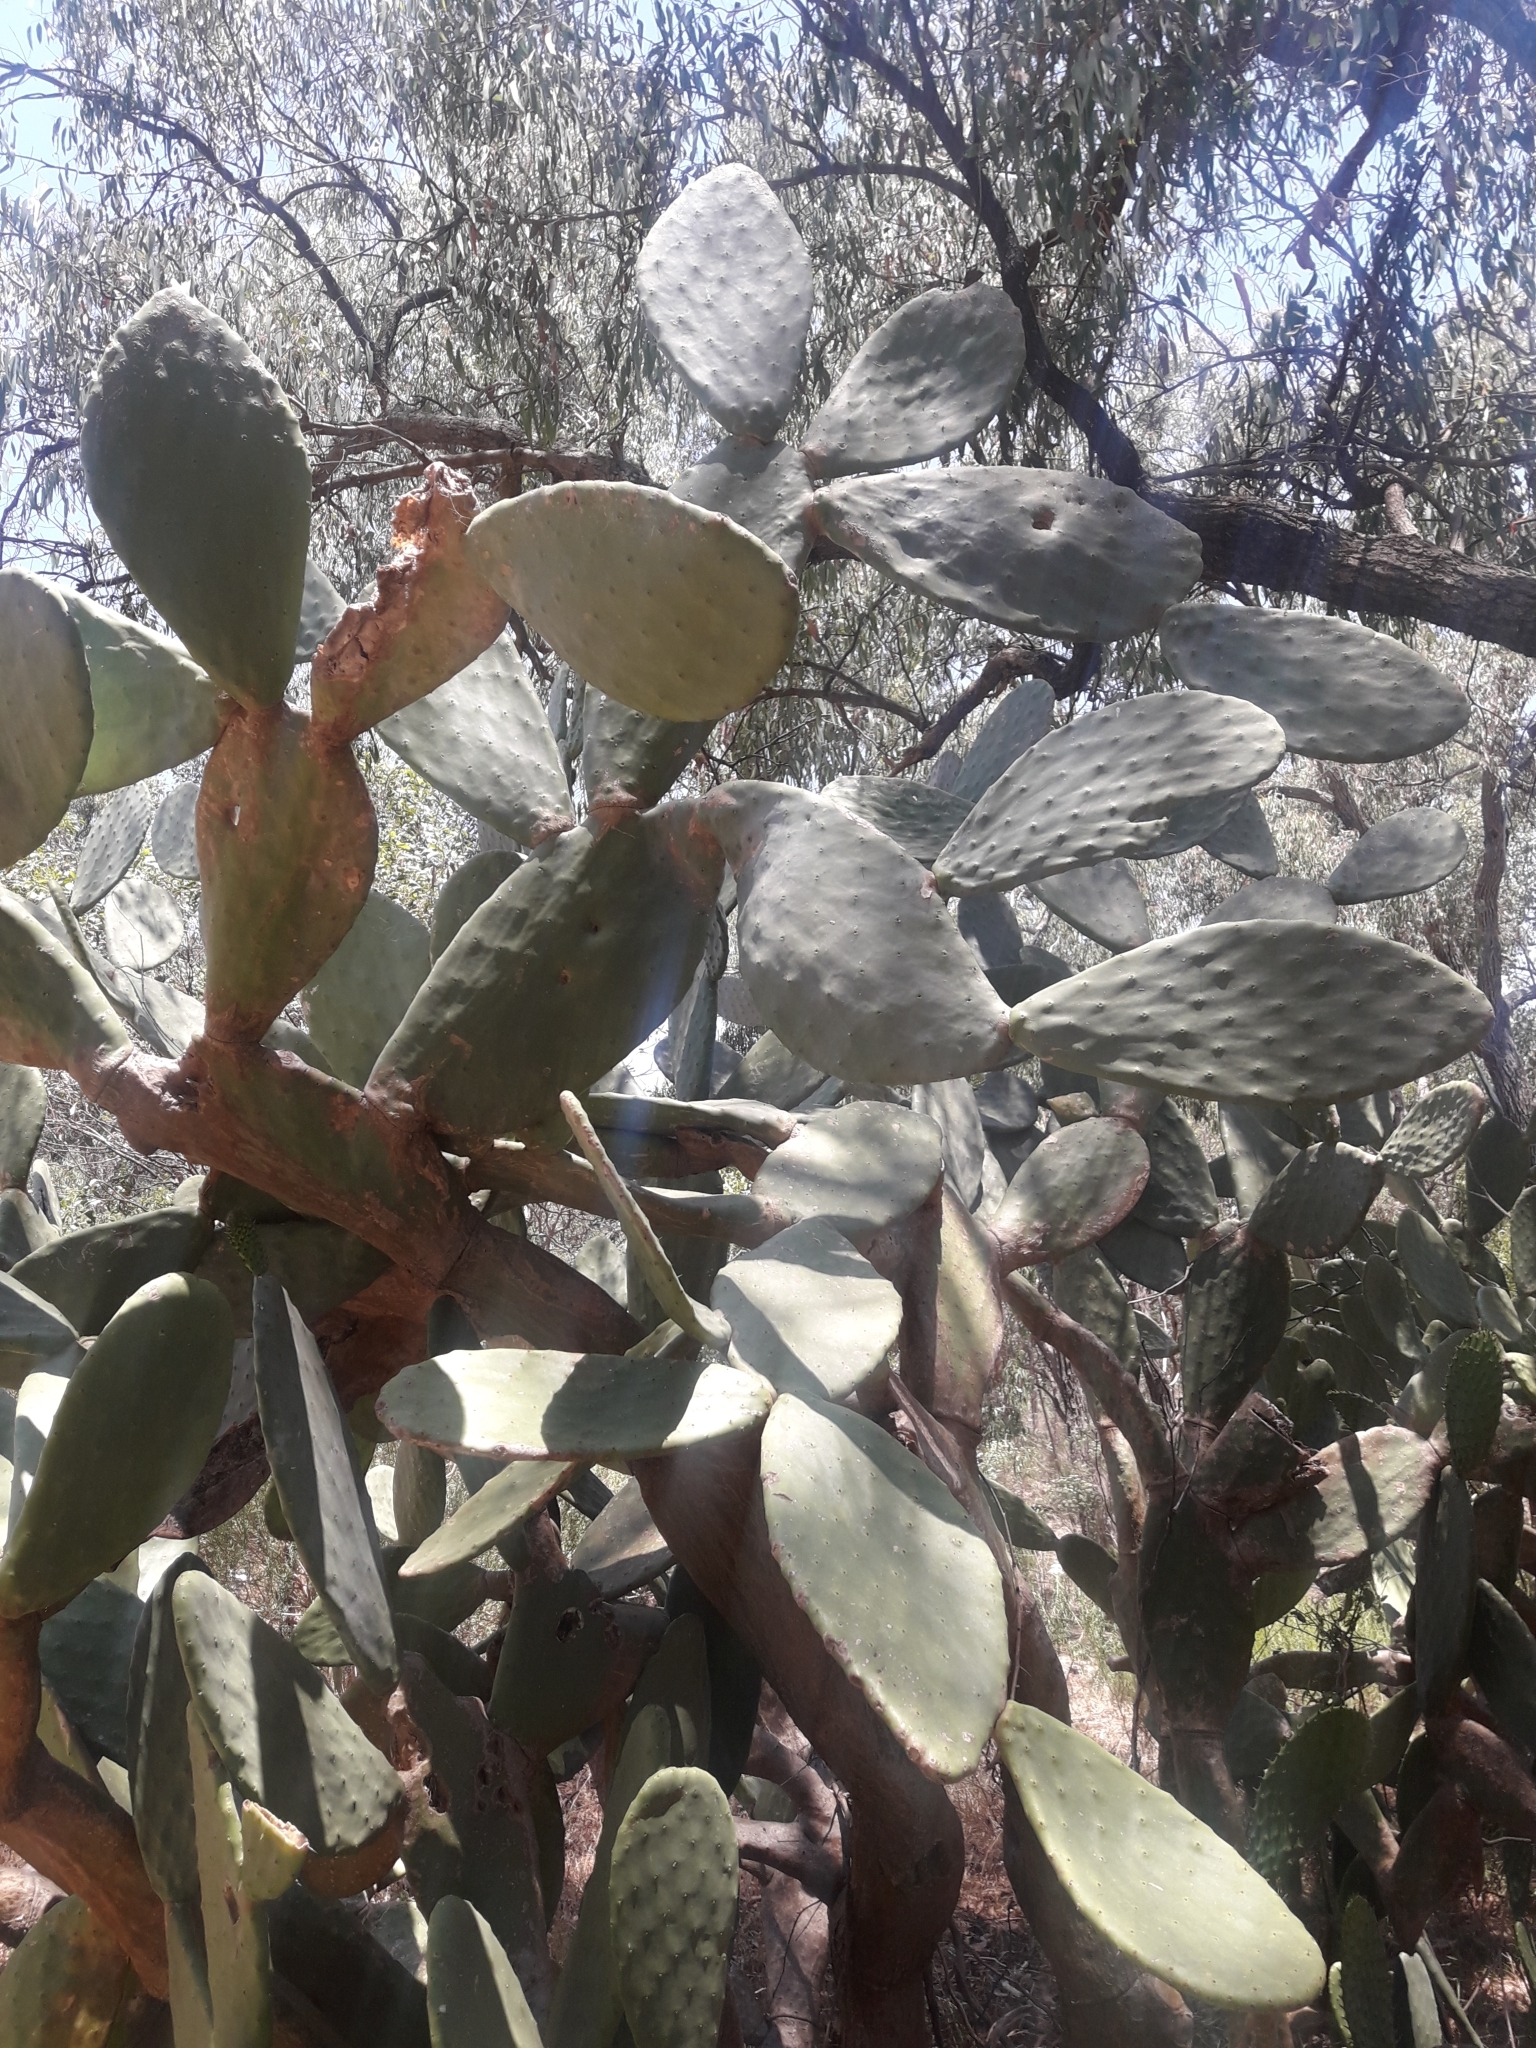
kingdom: Plantae
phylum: Tracheophyta
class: Magnoliopsida
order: Caryophyllales
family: Cactaceae
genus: Opuntia
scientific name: Opuntia ficus-indica
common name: Barbary fig
